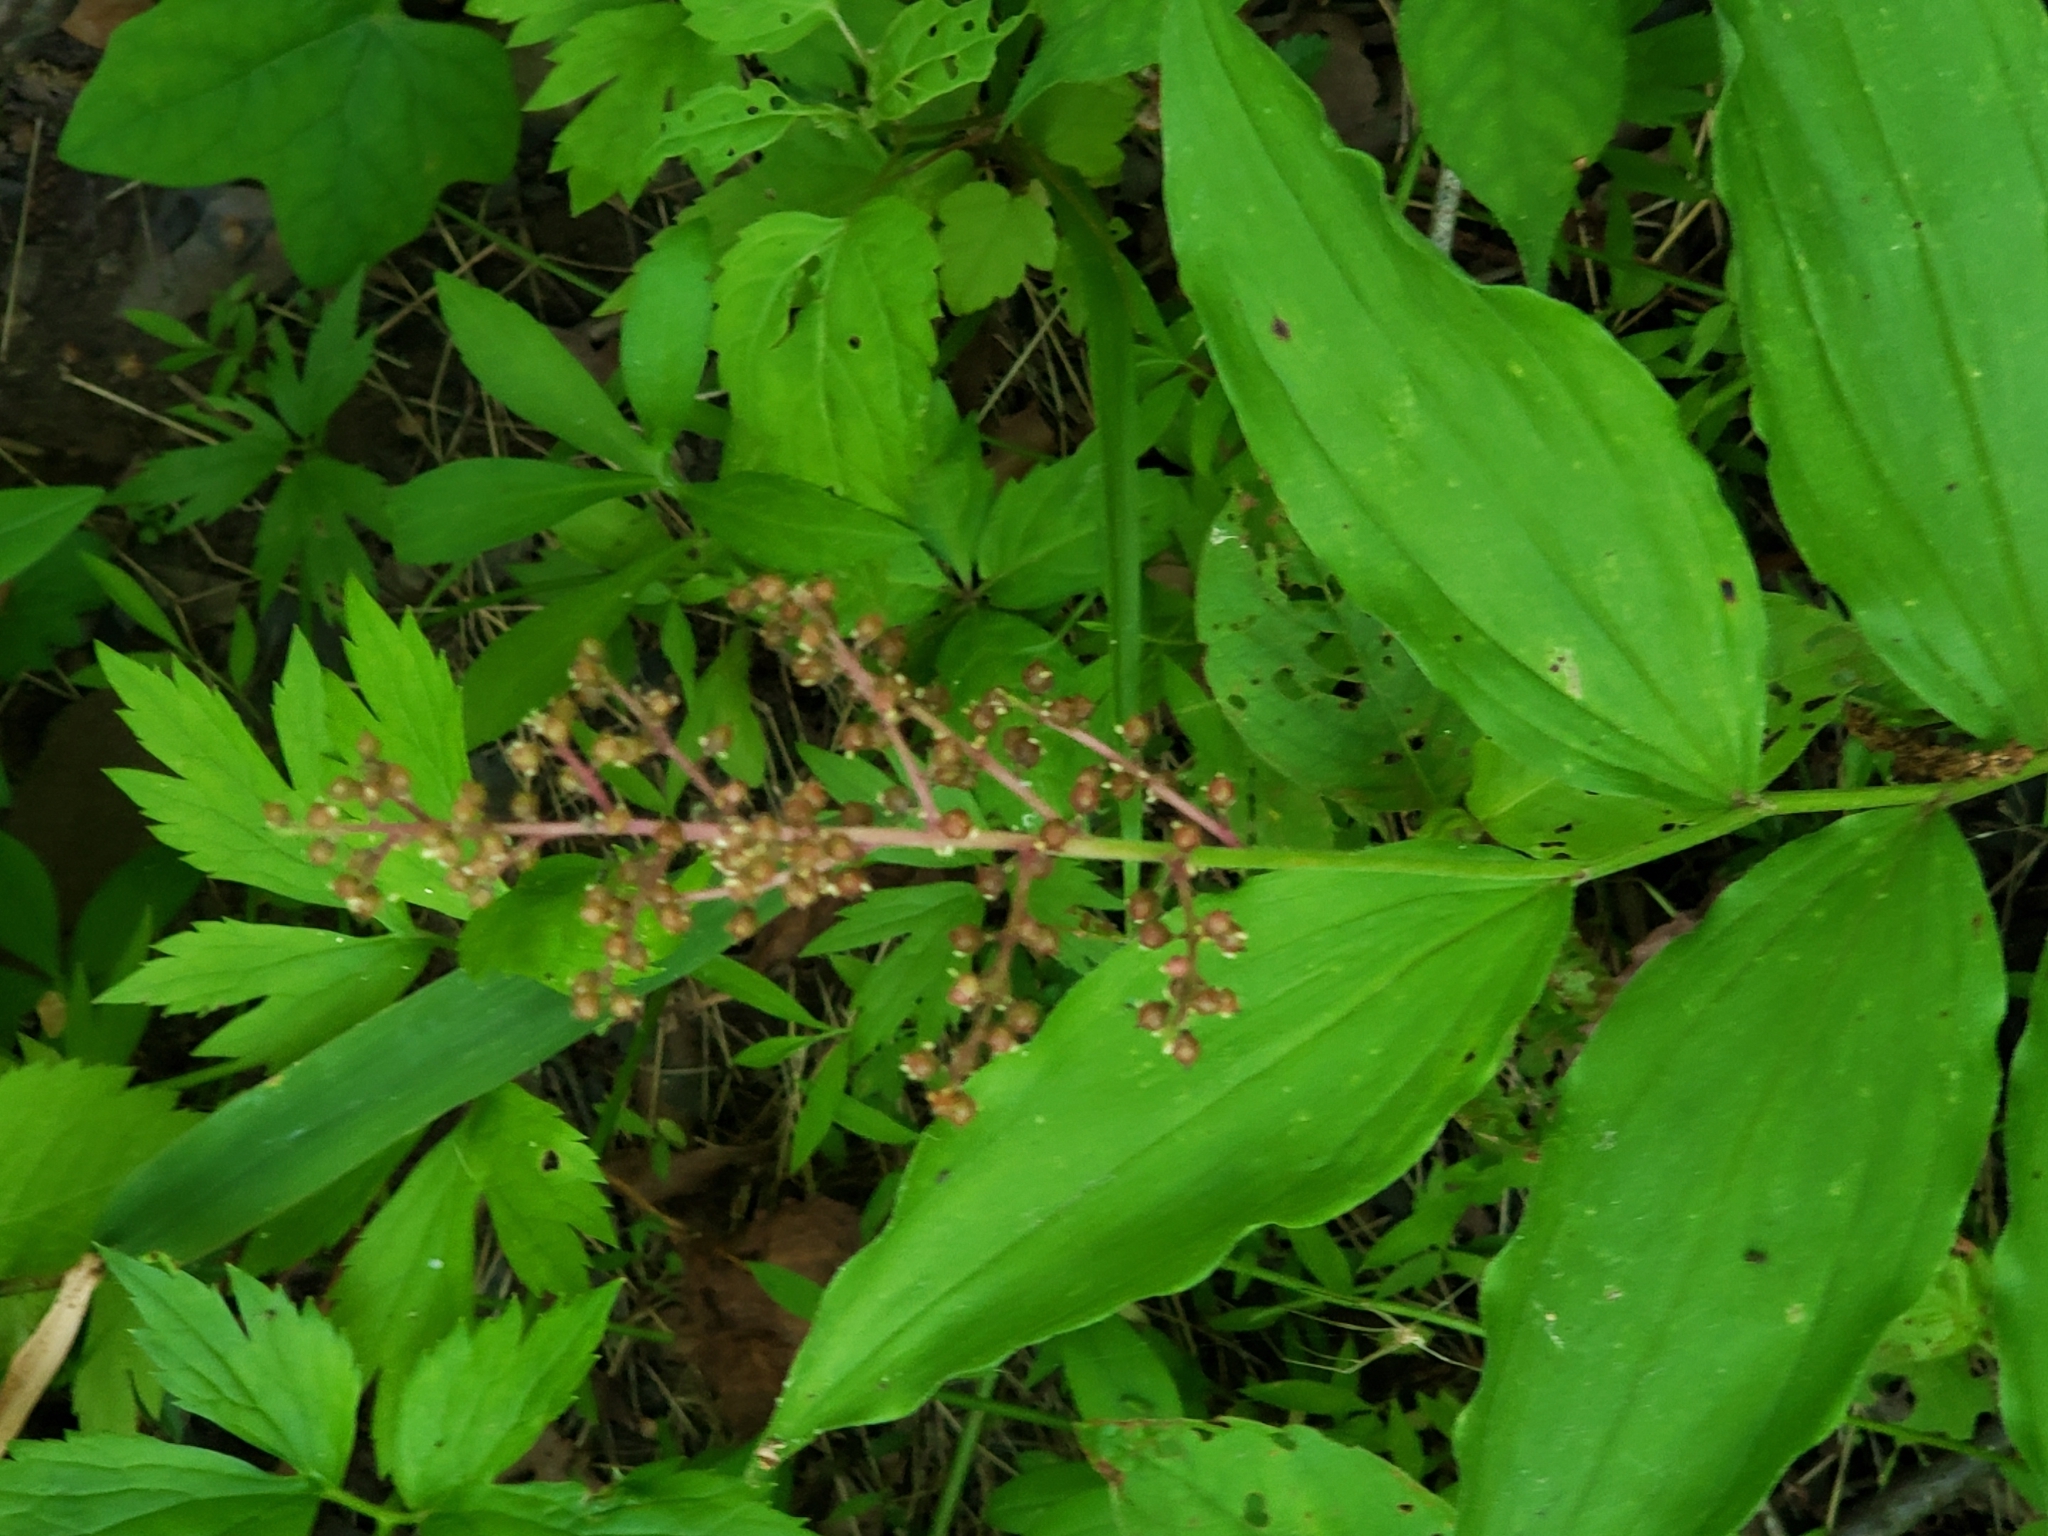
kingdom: Plantae
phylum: Tracheophyta
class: Liliopsida
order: Asparagales
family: Asparagaceae
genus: Maianthemum
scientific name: Maianthemum racemosum
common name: False spikenard
